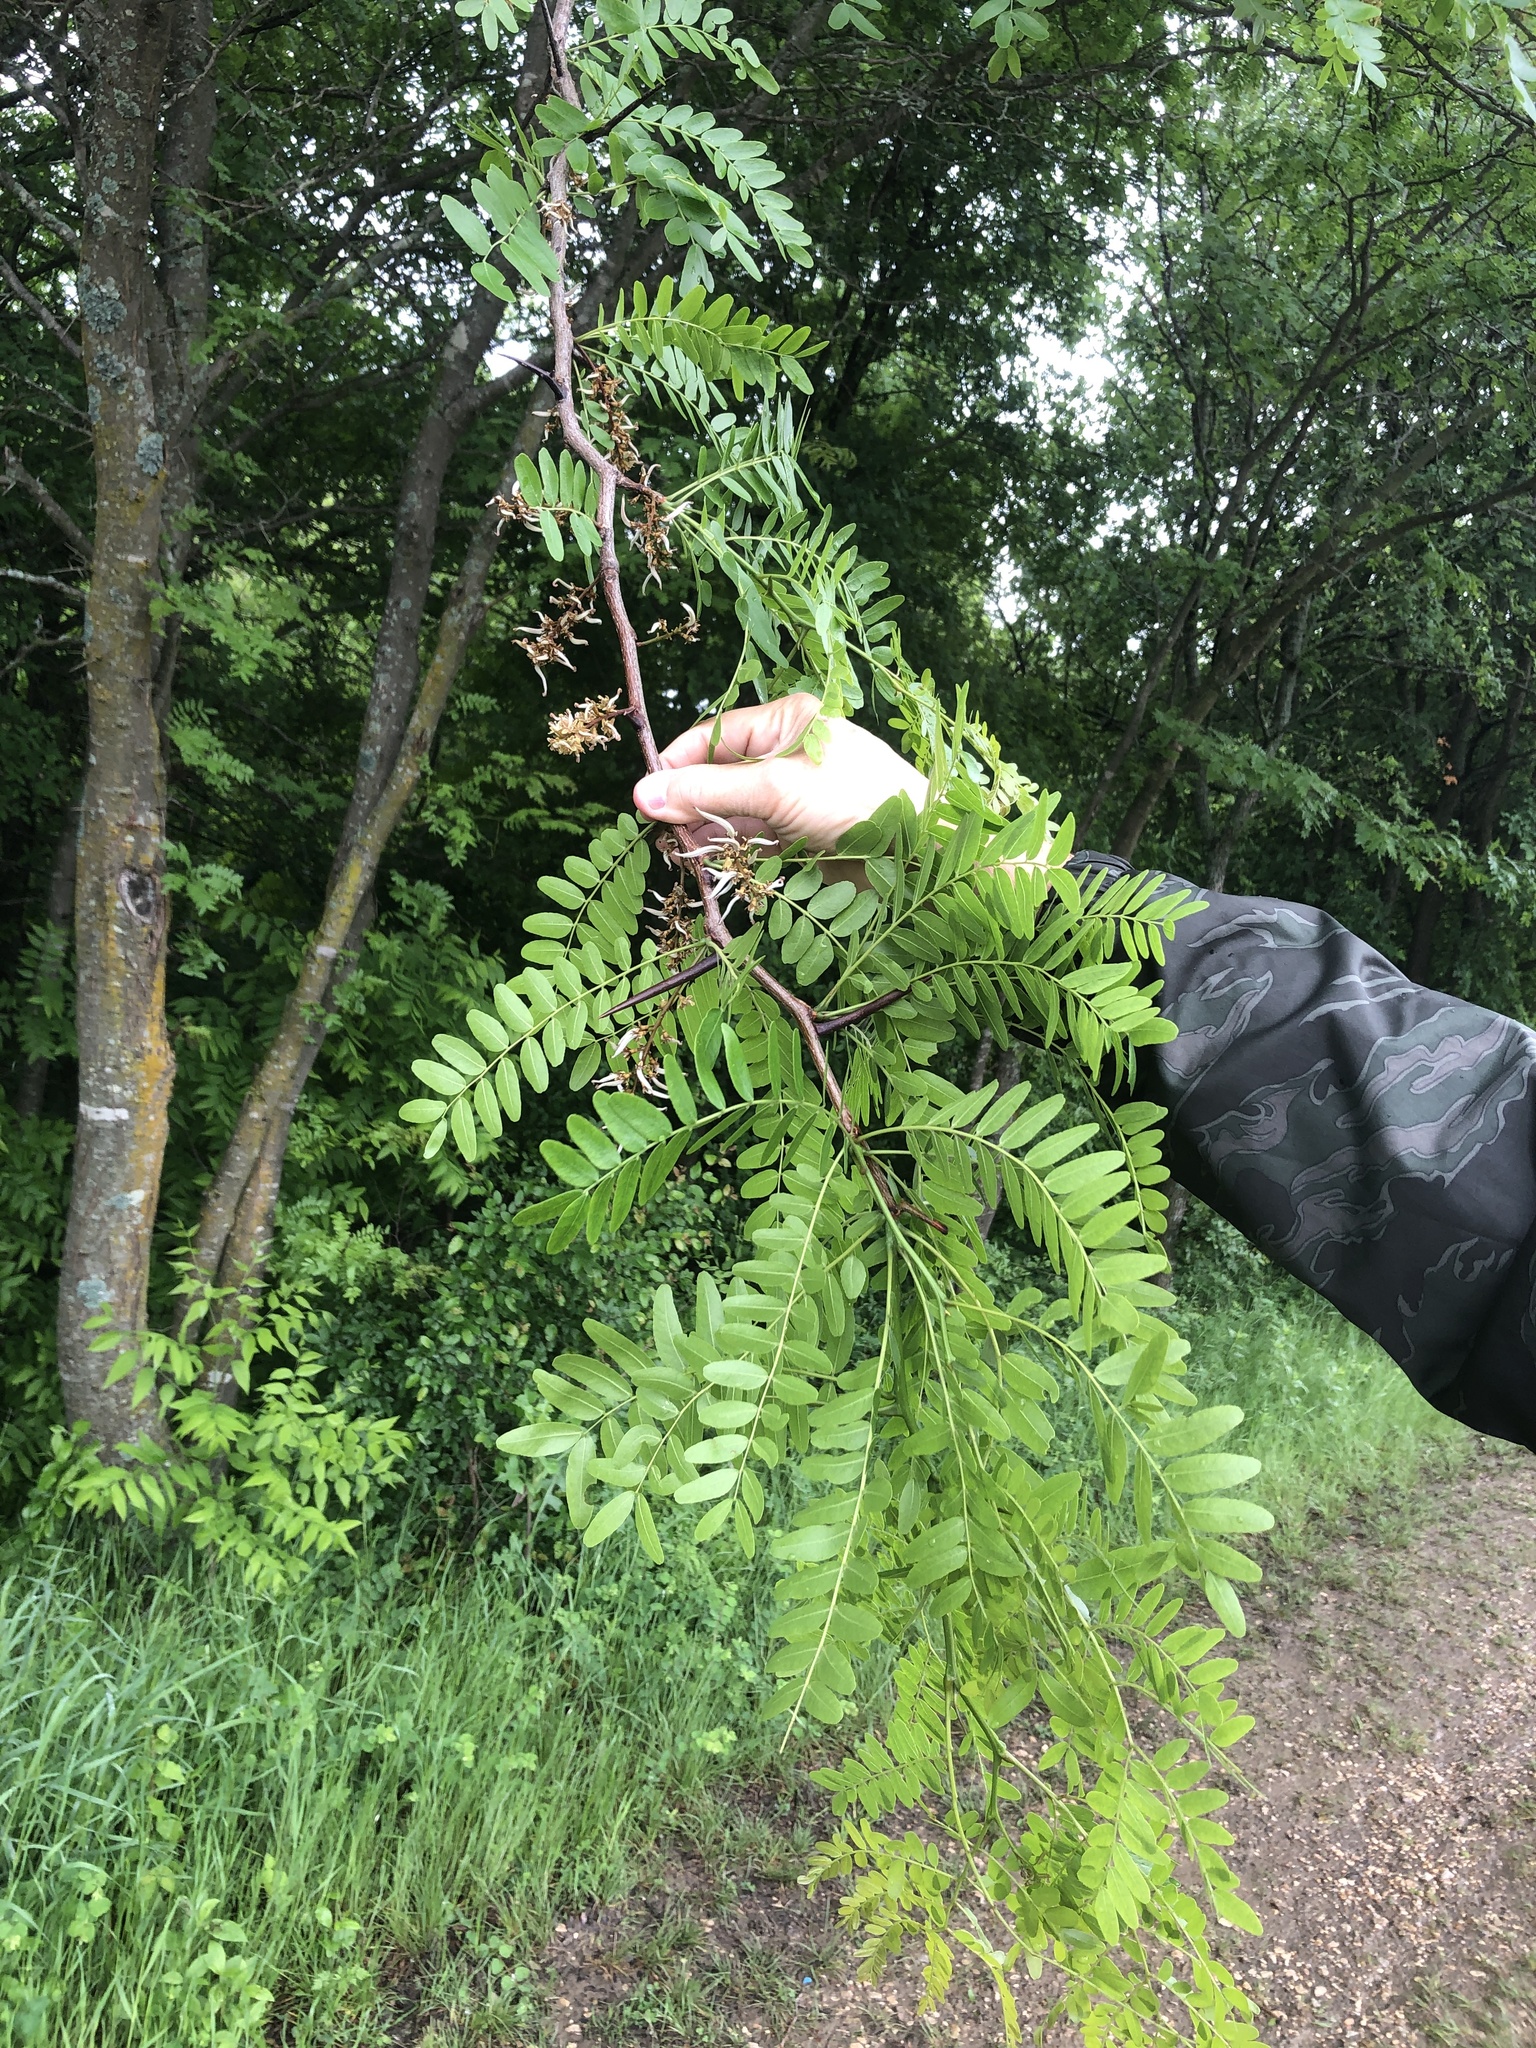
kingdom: Plantae
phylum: Tracheophyta
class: Magnoliopsida
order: Fabales
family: Fabaceae
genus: Gleditsia
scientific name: Gleditsia triacanthos
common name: Common honeylocust
